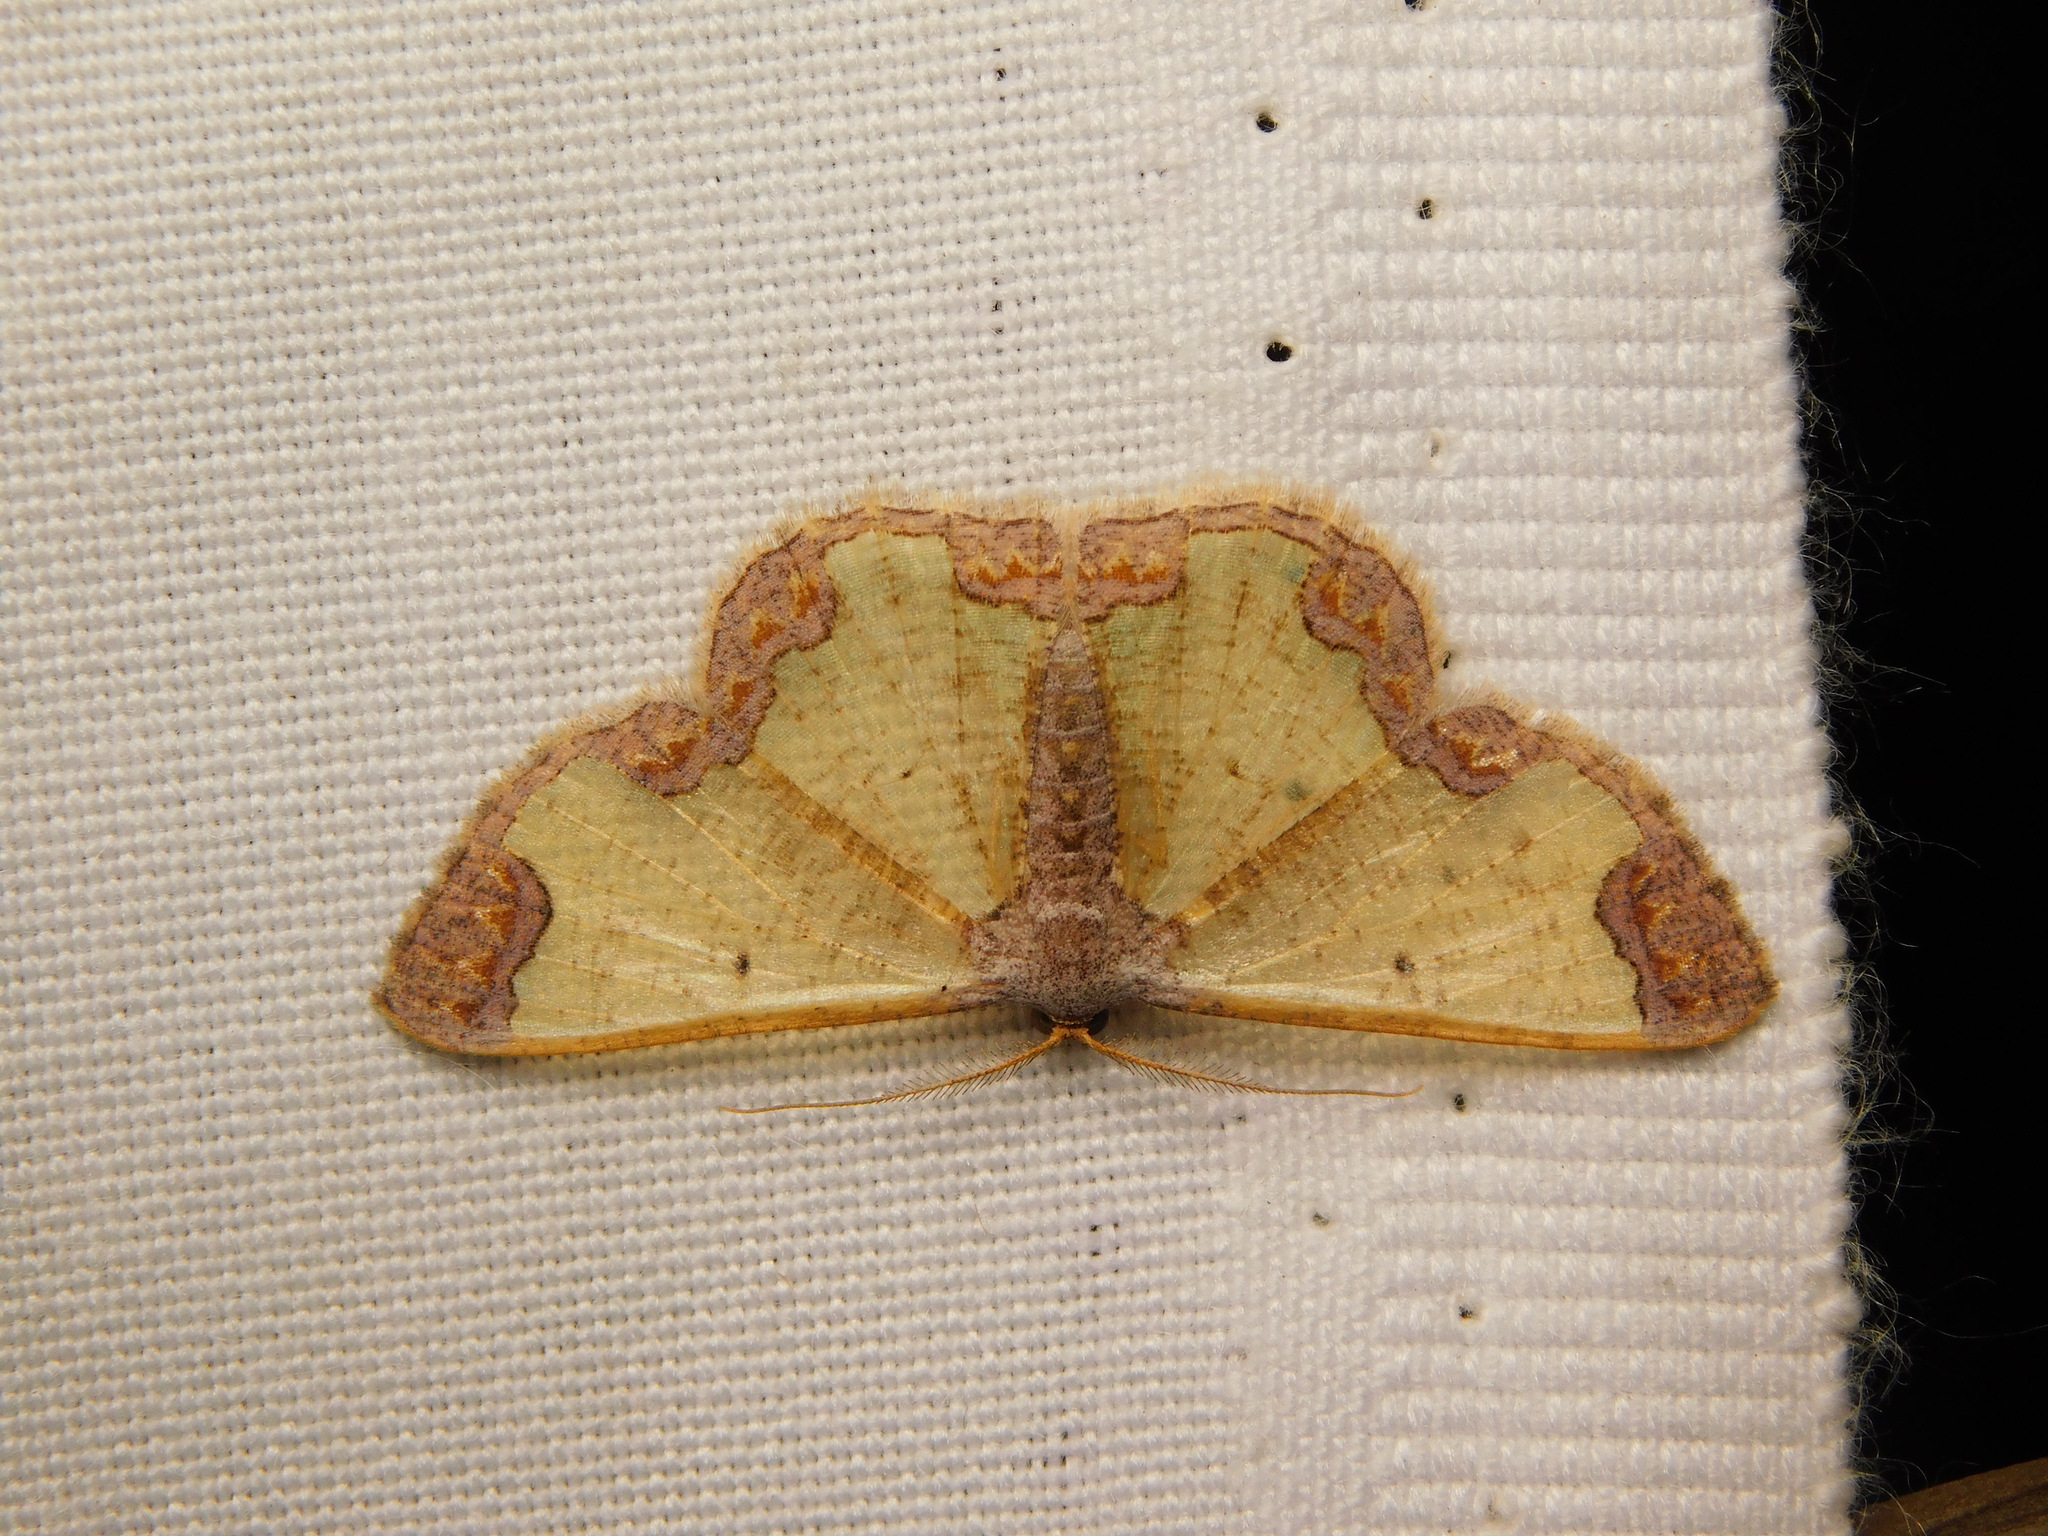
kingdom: Animalia
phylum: Arthropoda
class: Insecta
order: Lepidoptera
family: Geometridae
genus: Zamarada
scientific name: Zamarada excisa
